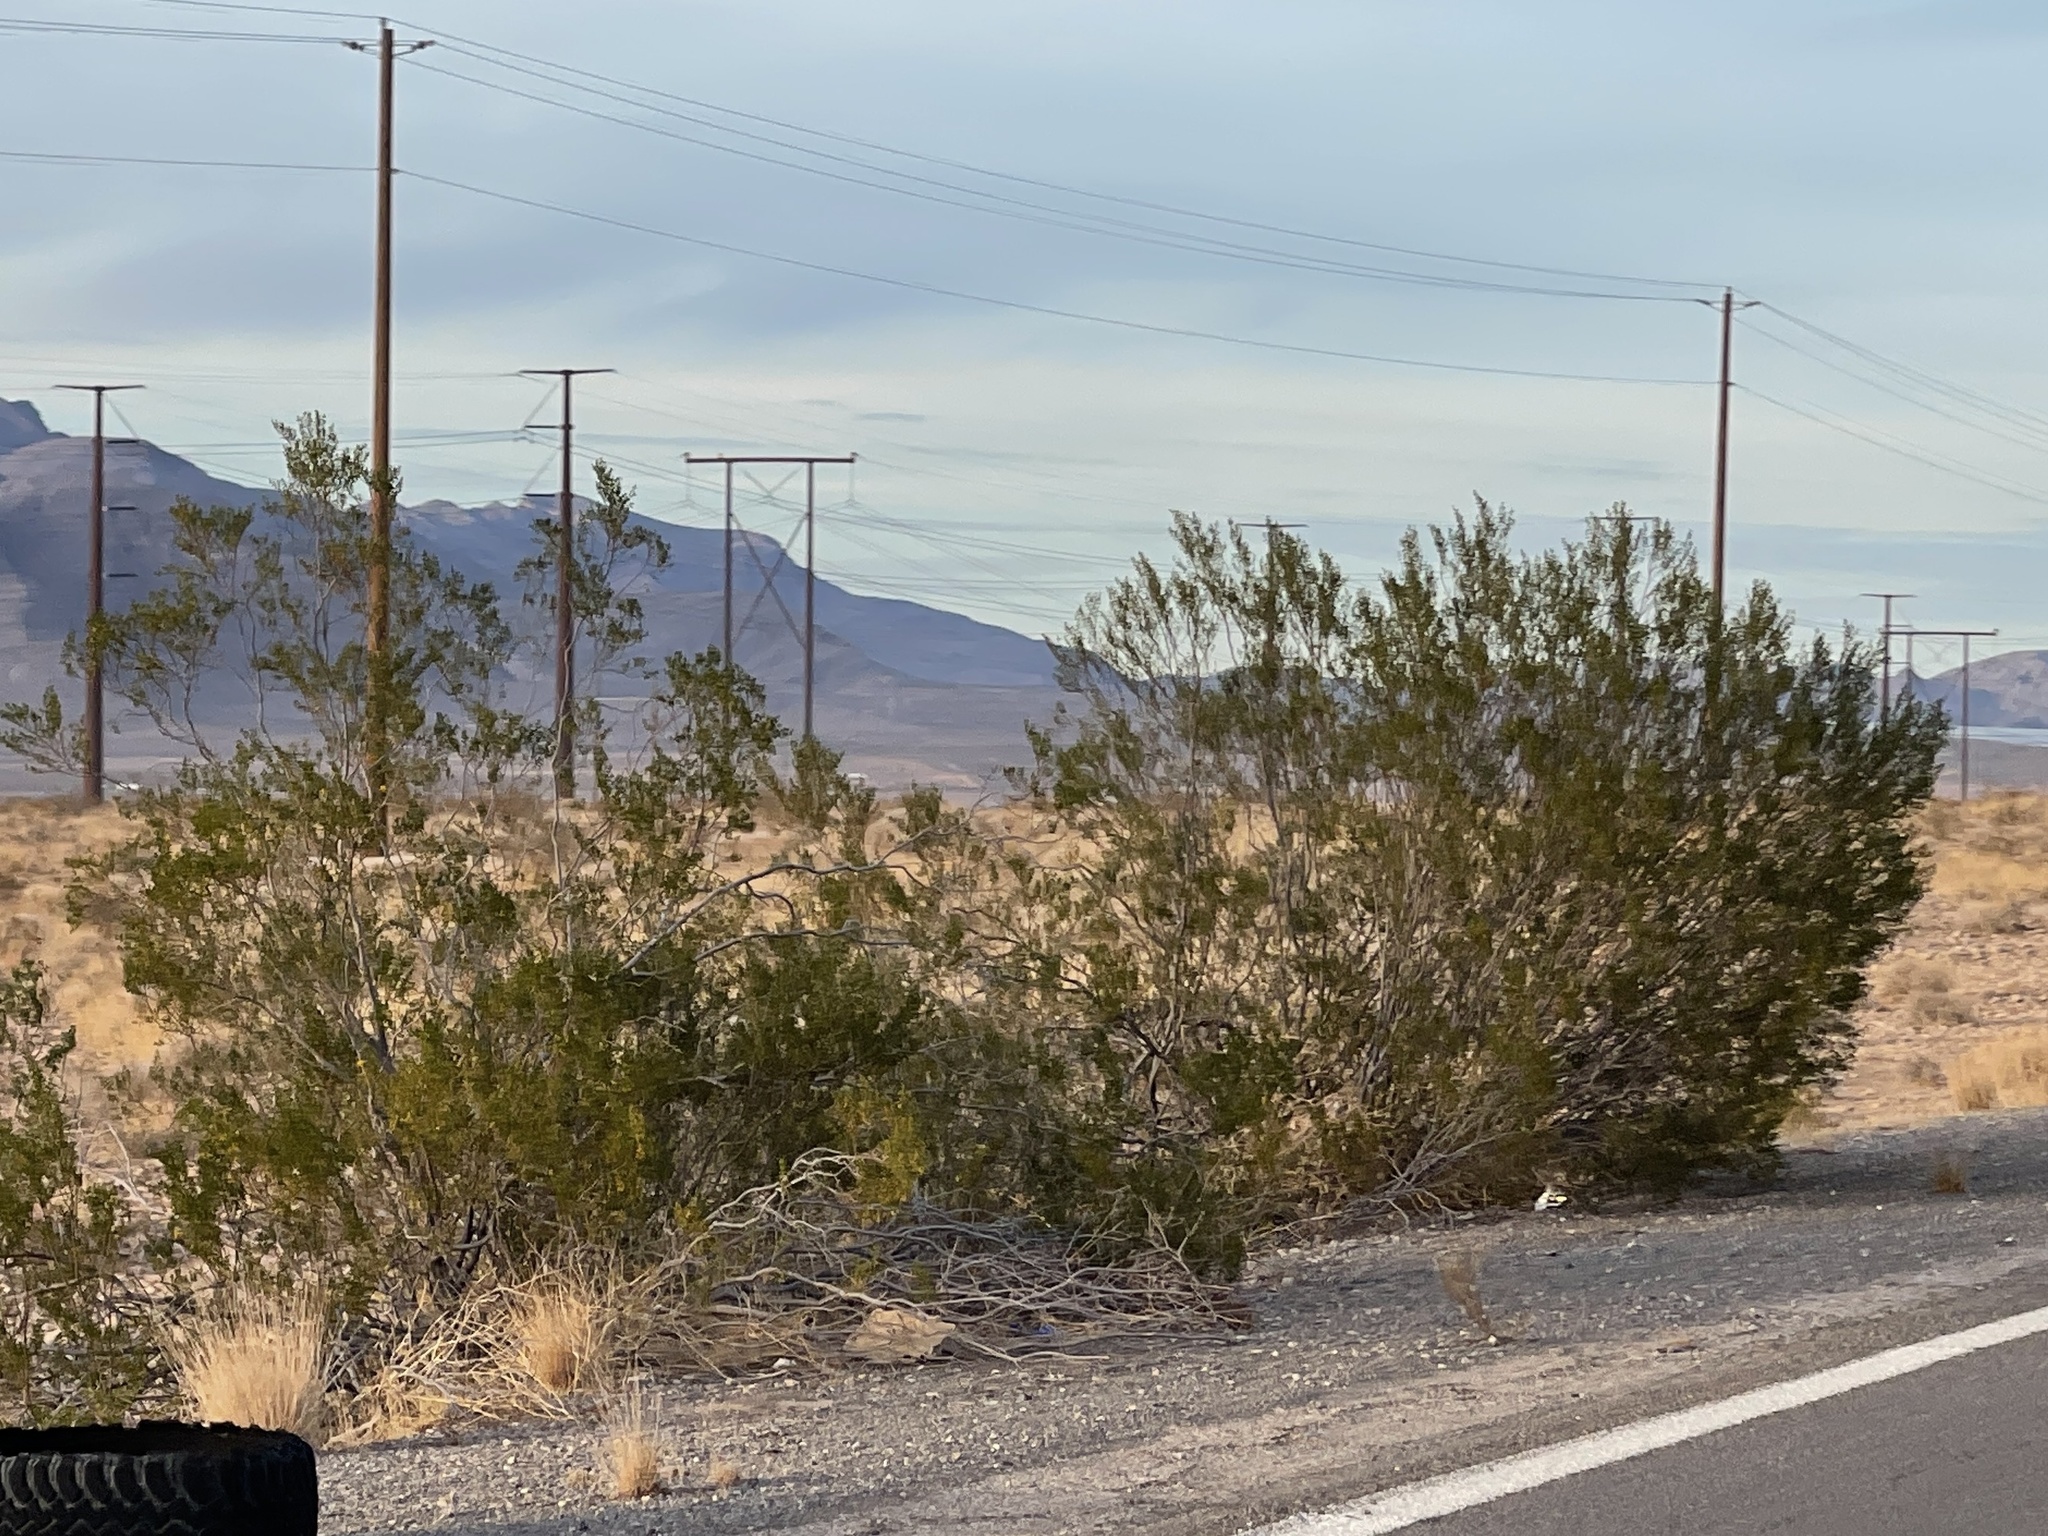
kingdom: Plantae
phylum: Tracheophyta
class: Magnoliopsida
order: Zygophyllales
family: Zygophyllaceae
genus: Larrea
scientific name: Larrea tridentata
